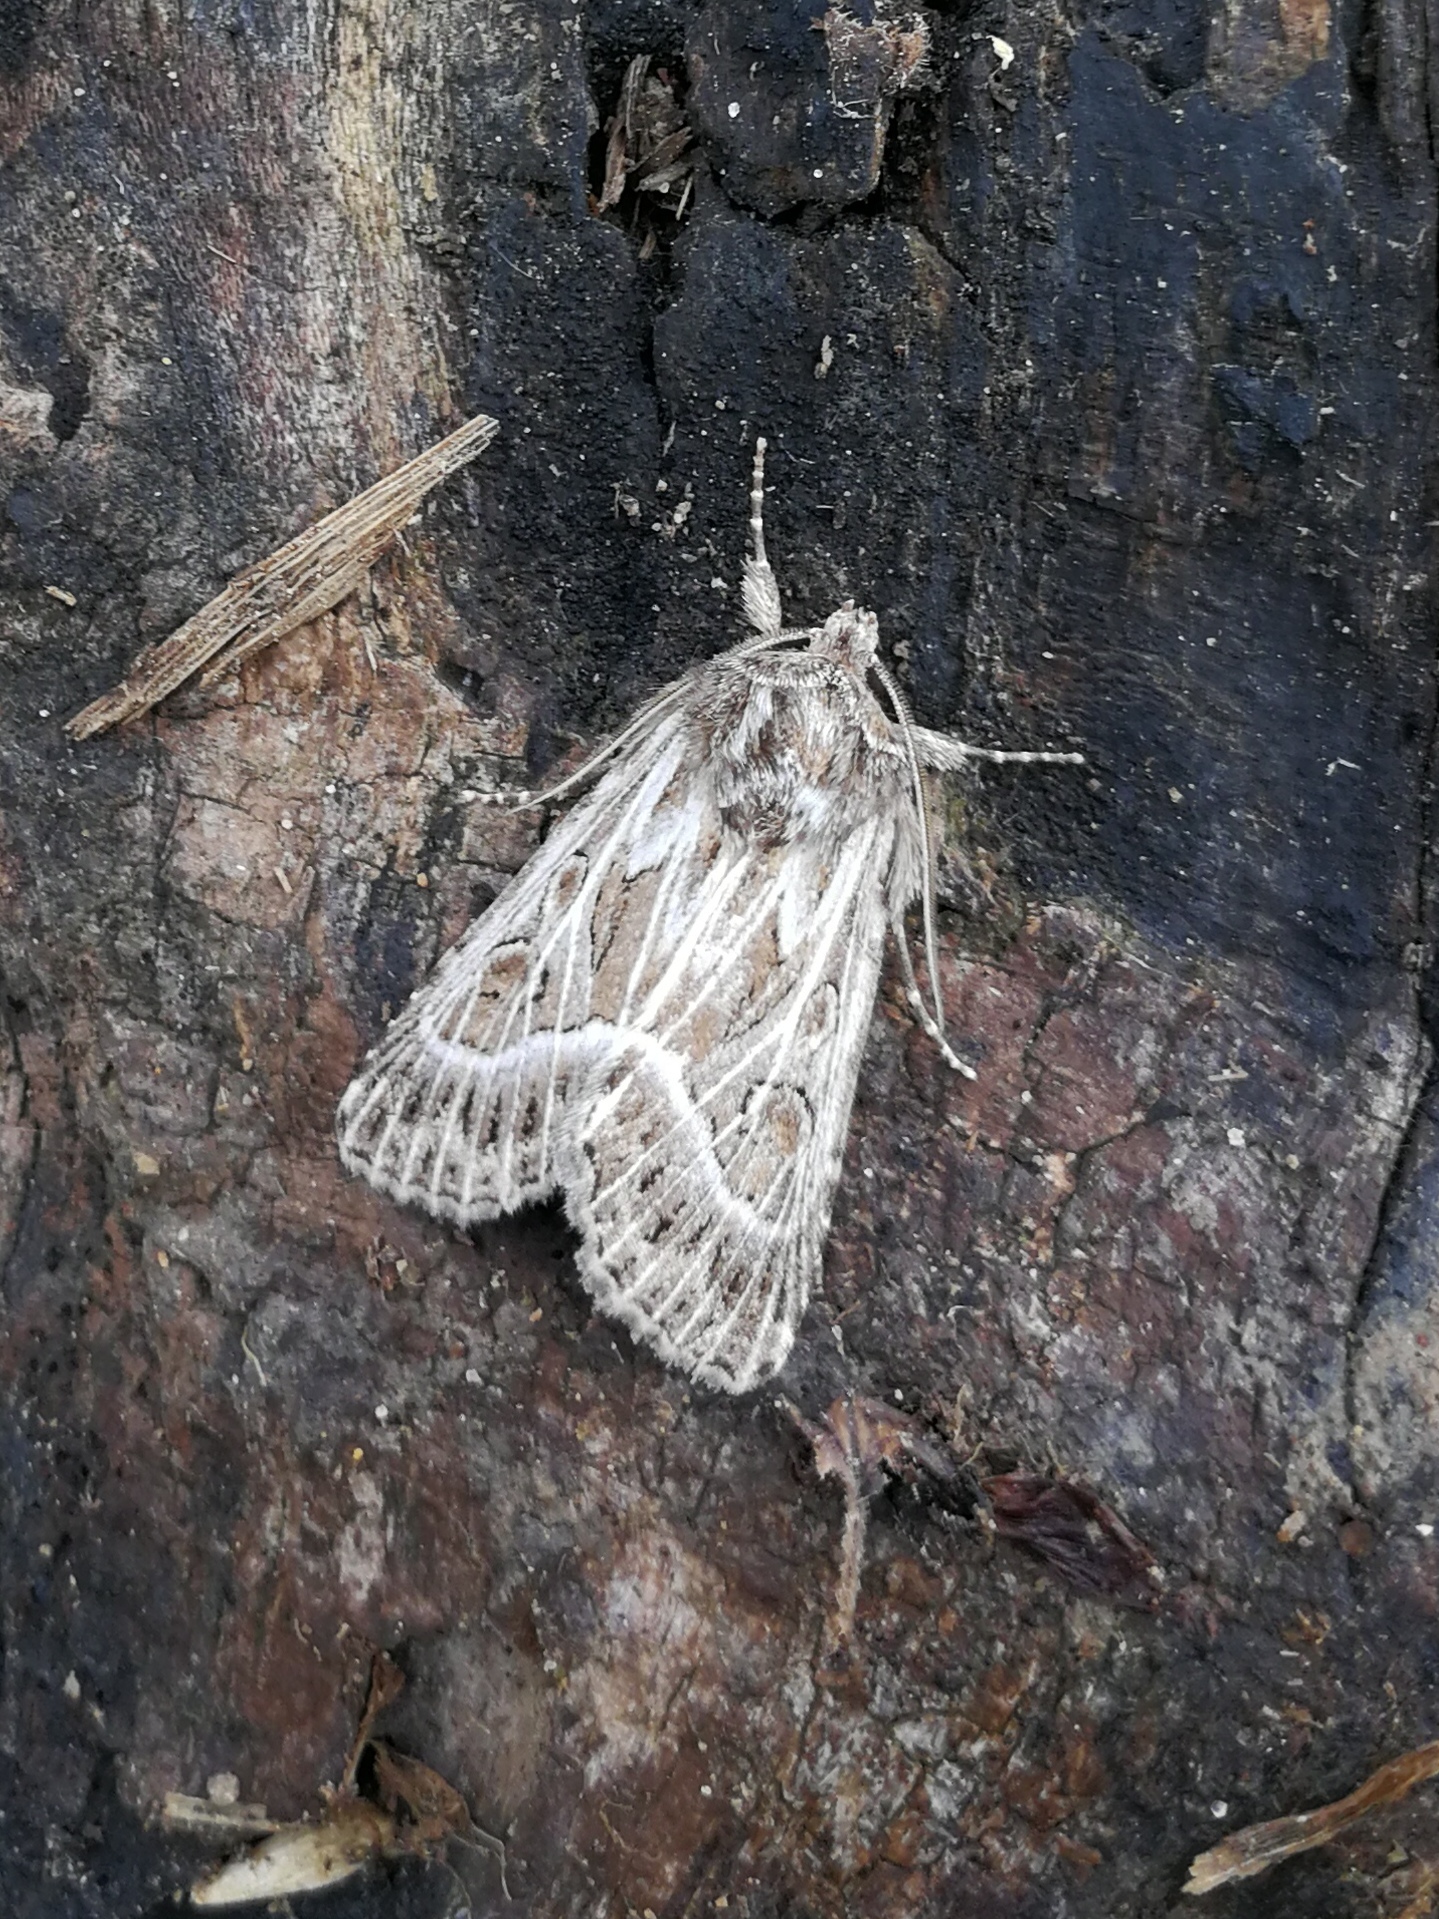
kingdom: Animalia
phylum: Arthropoda
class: Insecta
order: Lepidoptera
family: Noctuidae
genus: Thalpophila
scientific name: Thalpophila vitalba
